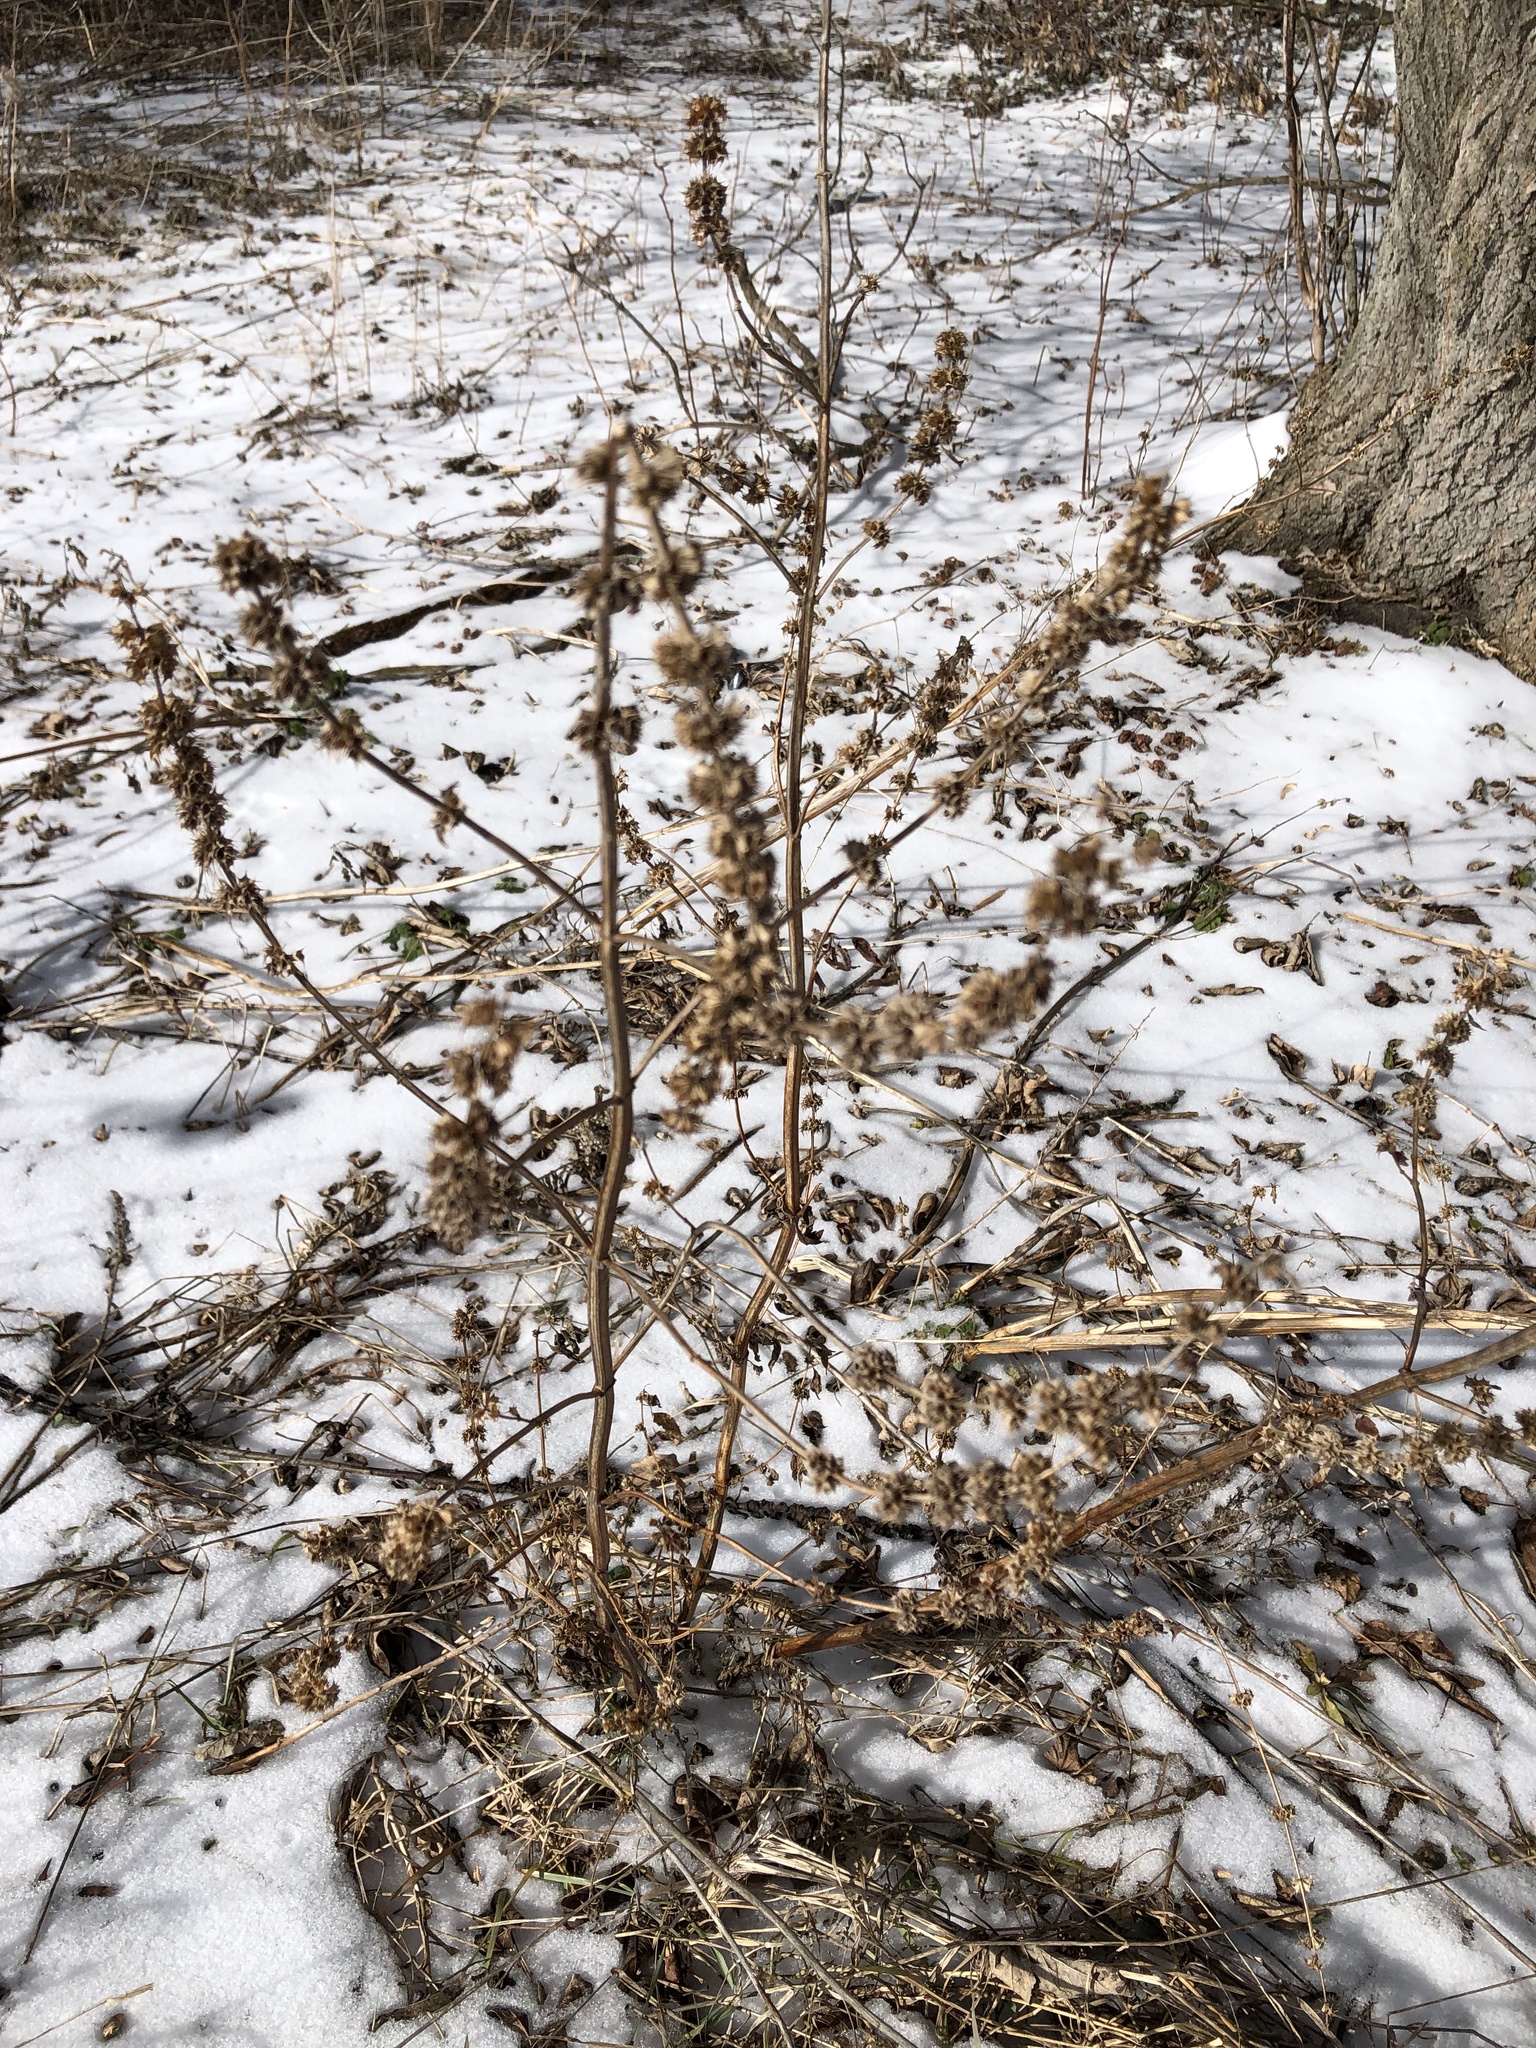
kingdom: Plantae
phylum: Tracheophyta
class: Magnoliopsida
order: Lamiales
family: Lamiaceae
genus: Leonurus
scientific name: Leonurus cardiaca
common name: Motherwort
